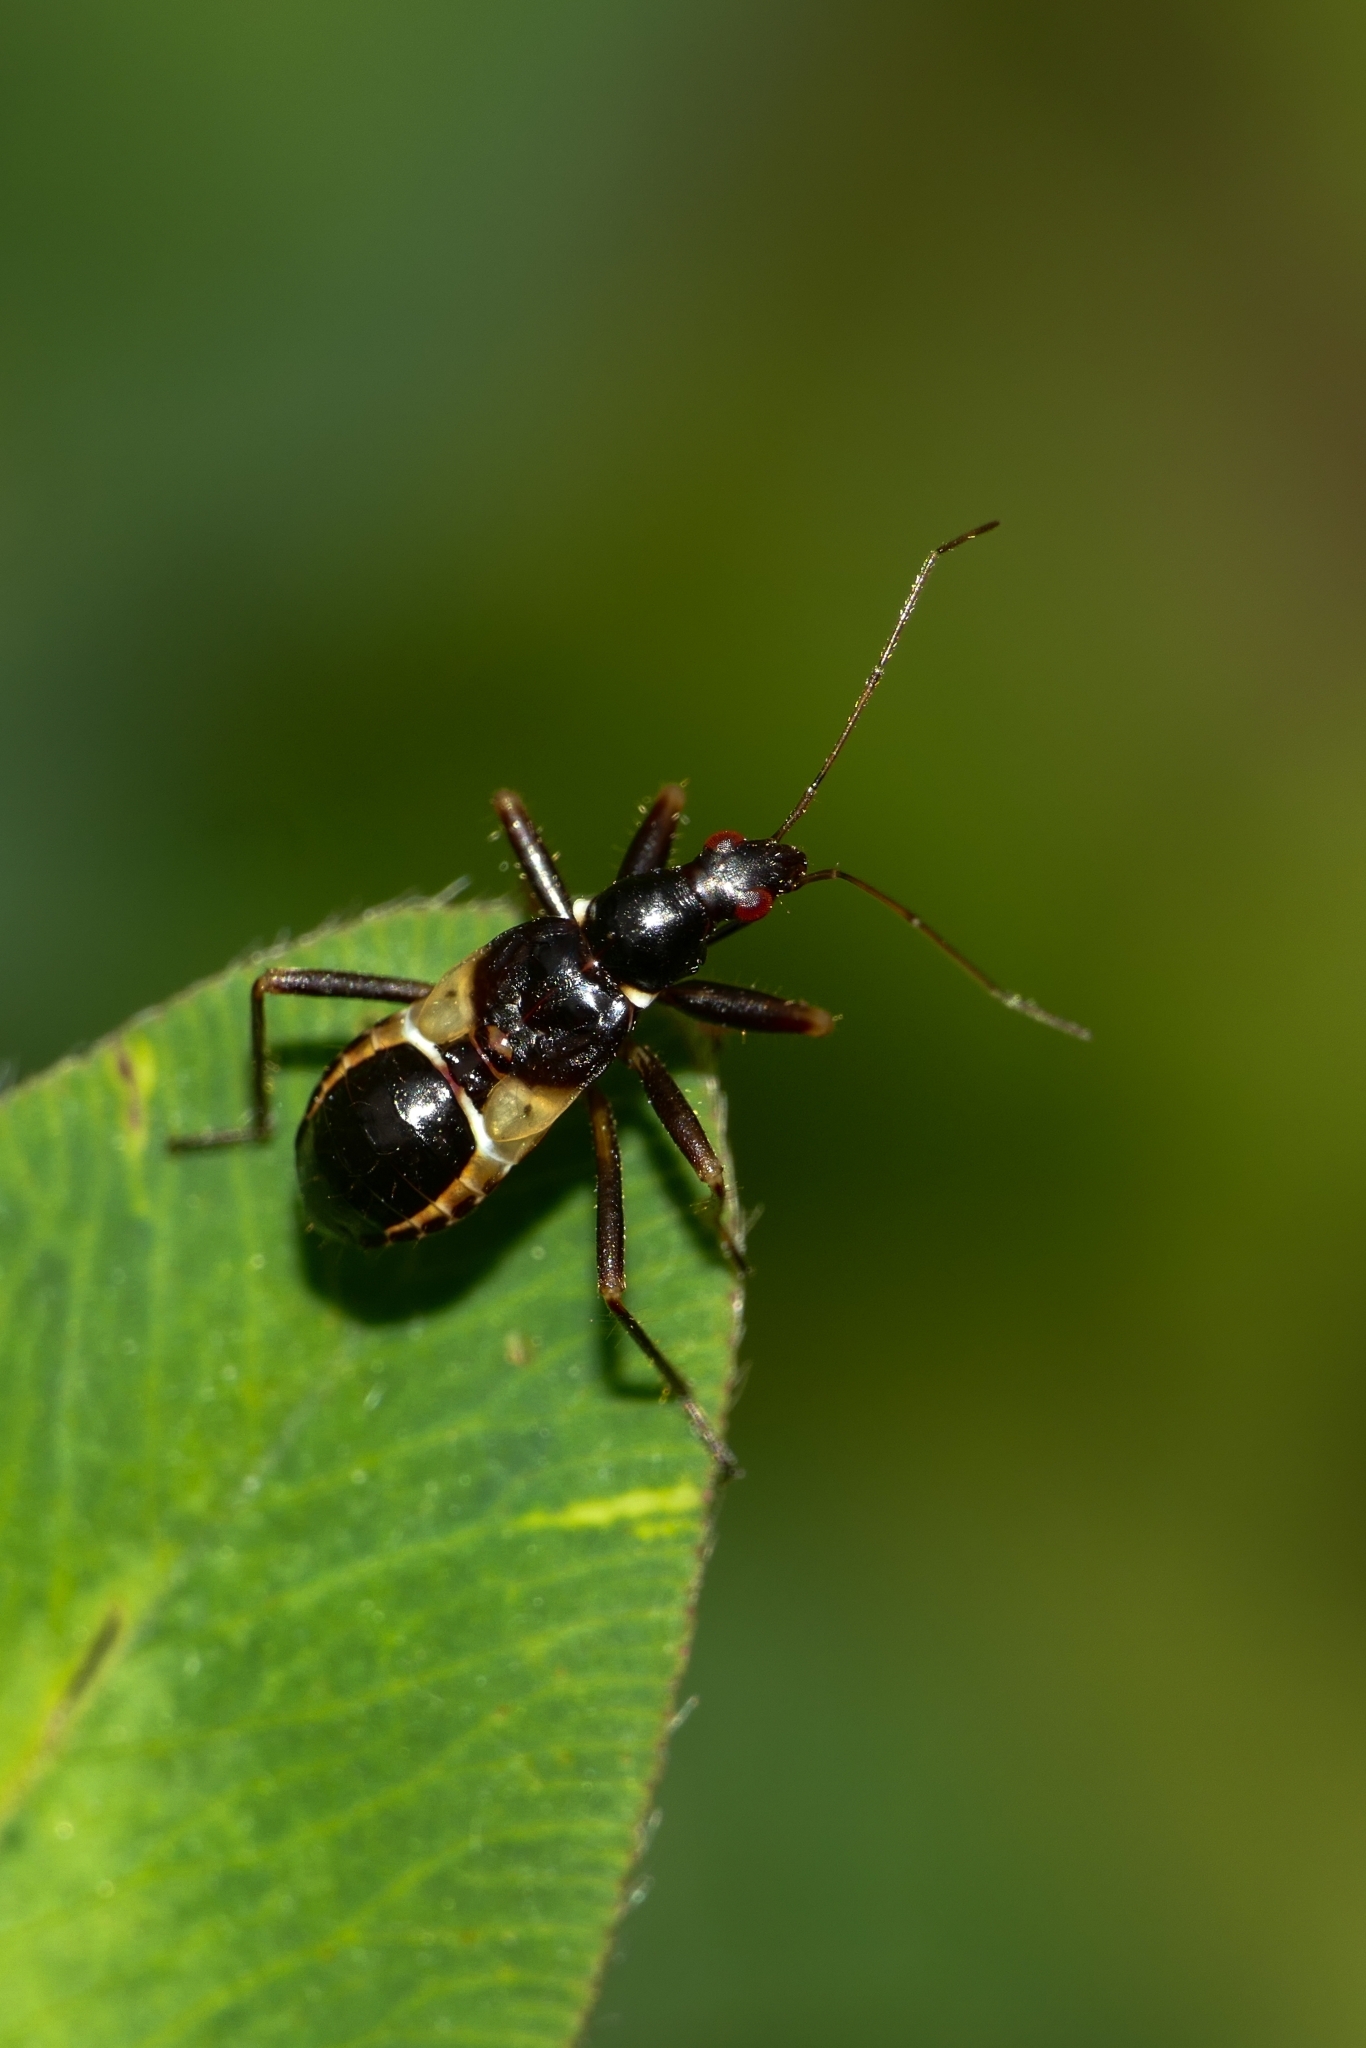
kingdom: Animalia
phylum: Arthropoda
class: Insecta
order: Hemiptera
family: Nabidae
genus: Himacerus
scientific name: Himacerus mirmicoides
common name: Ant damsel bug
